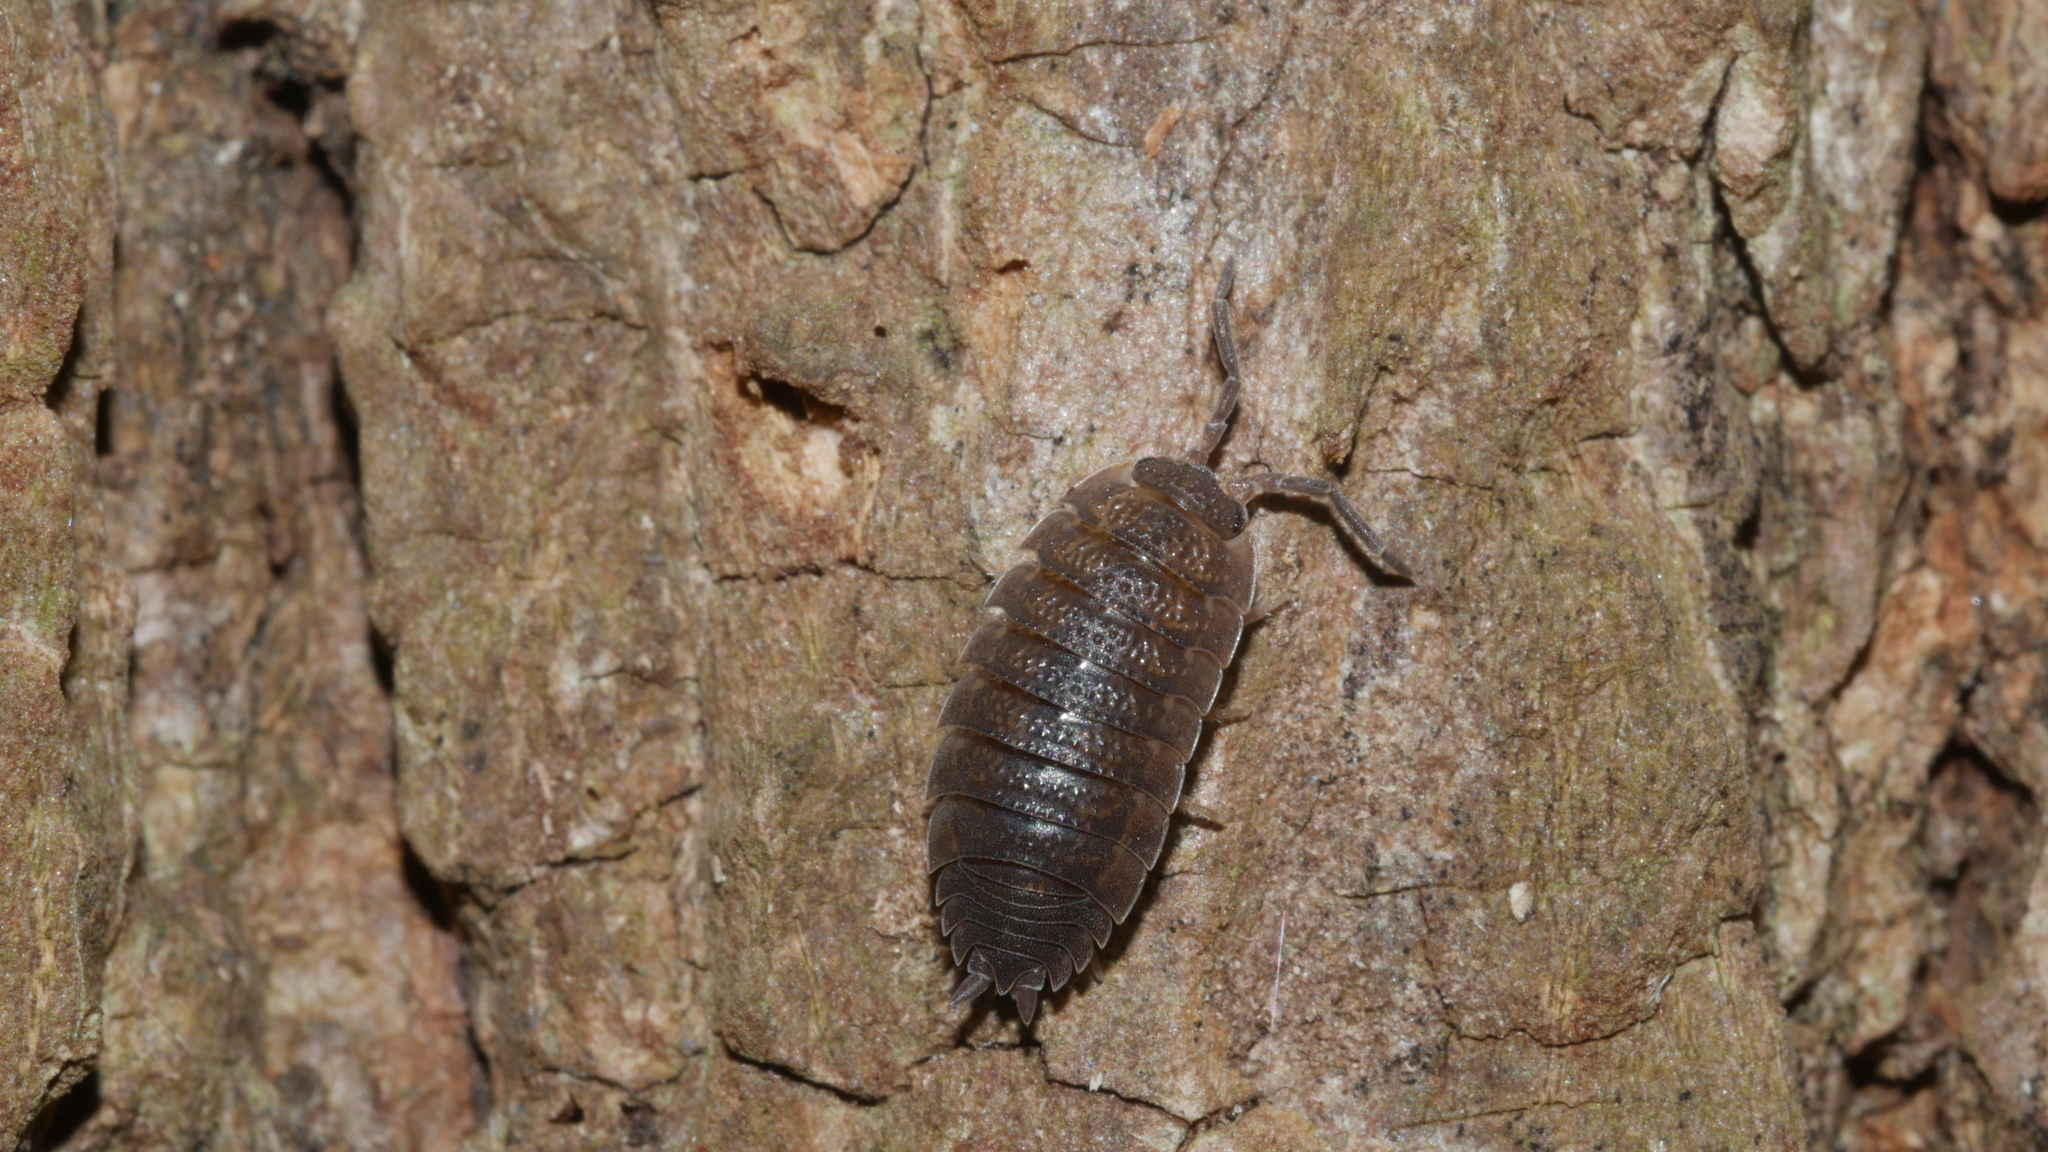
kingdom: Animalia
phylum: Arthropoda
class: Malacostraca
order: Isopoda
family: Porcellionidae
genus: Porcellio
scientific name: Porcellio scaber
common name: Common rough woodlouse
